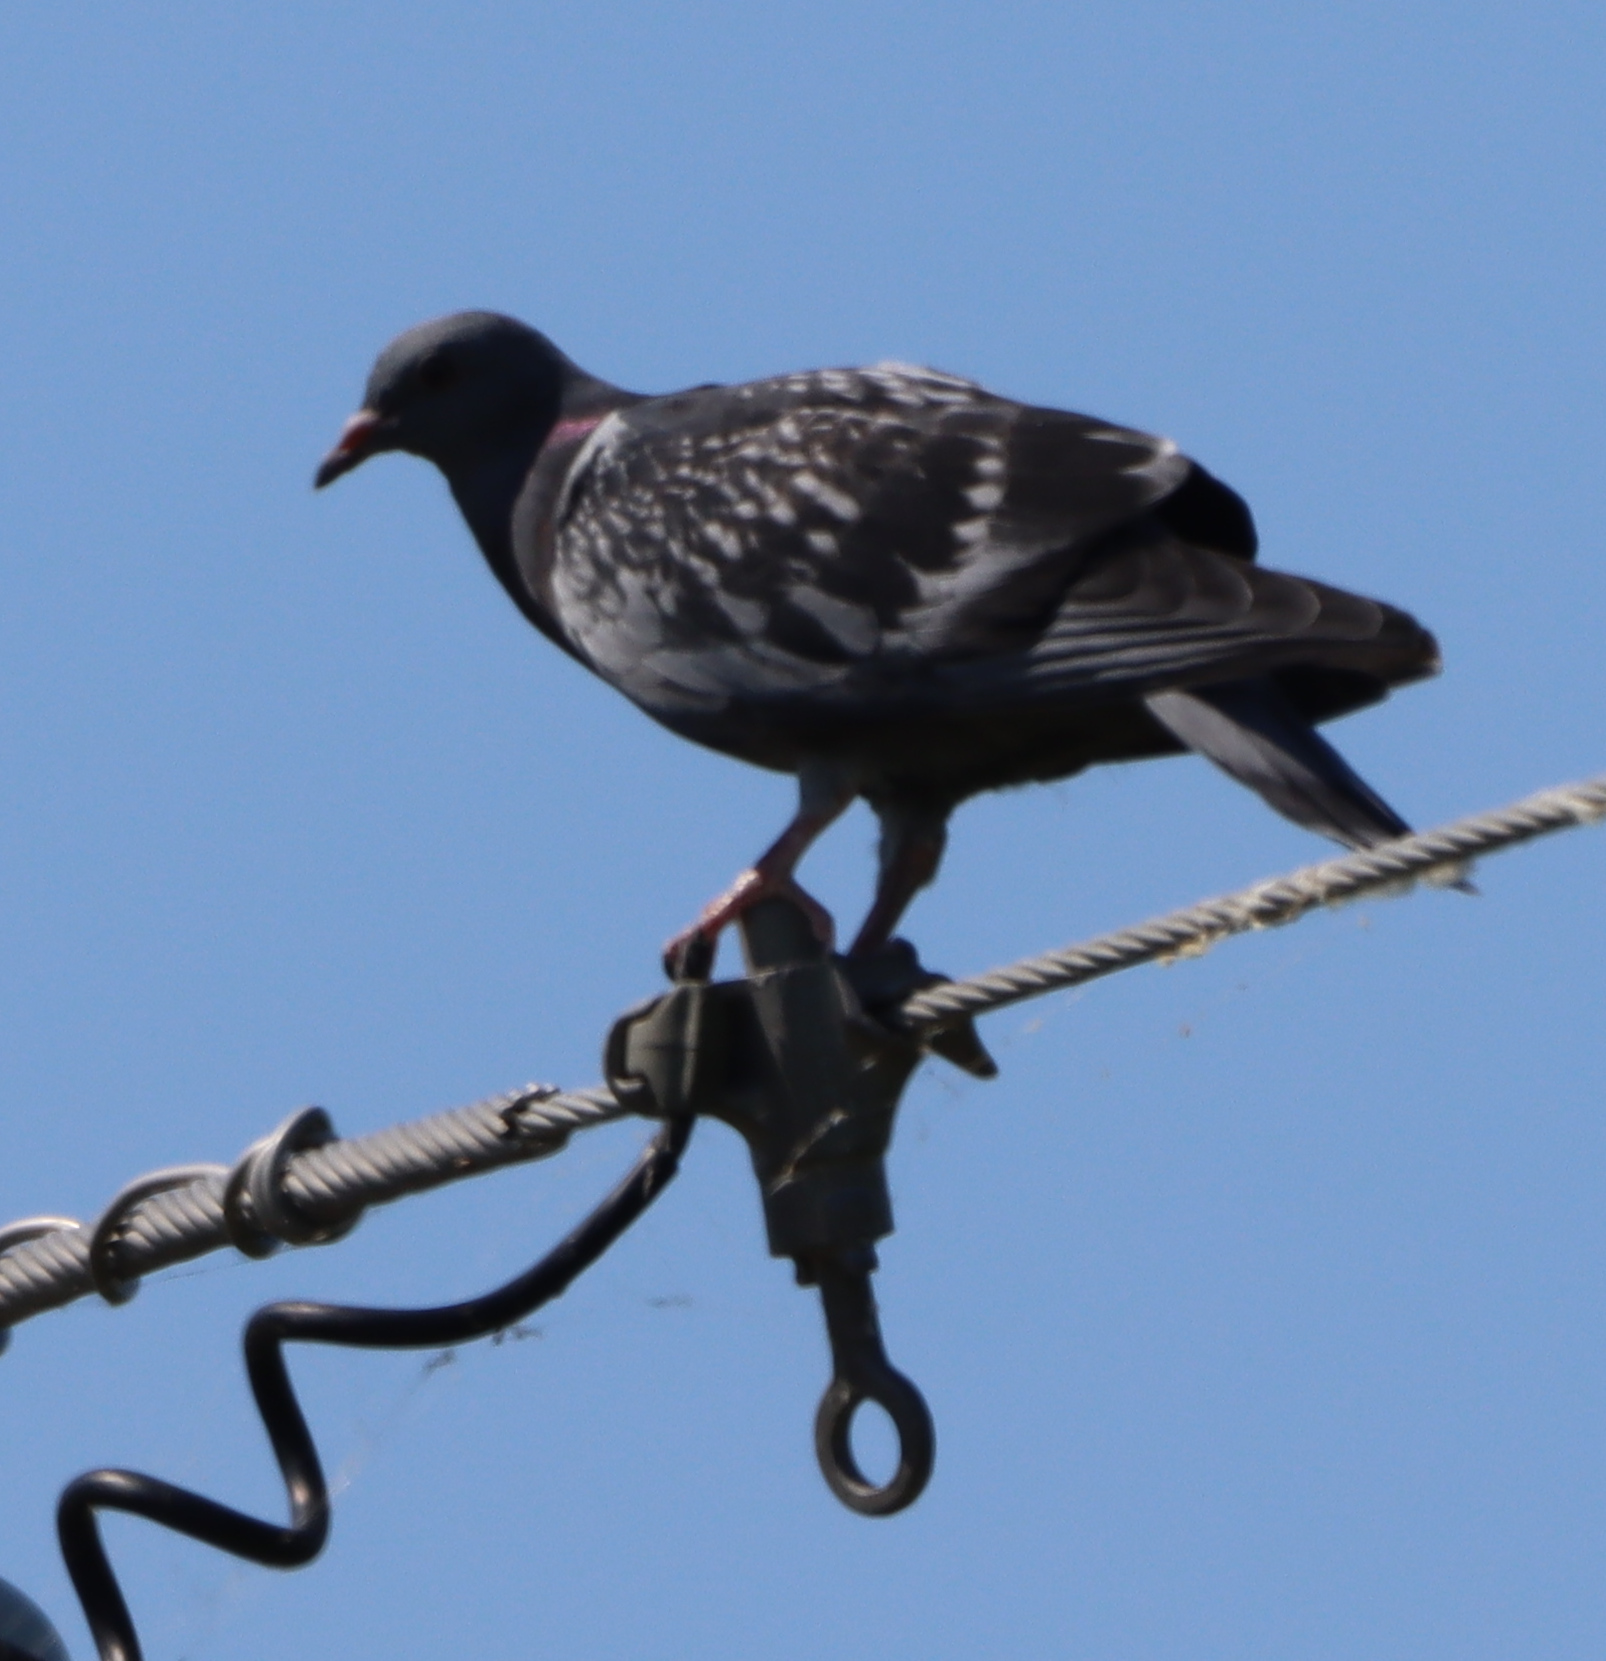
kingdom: Animalia
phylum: Chordata
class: Aves
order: Columbiformes
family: Columbidae
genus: Columba
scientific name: Columba livia
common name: Rock pigeon
